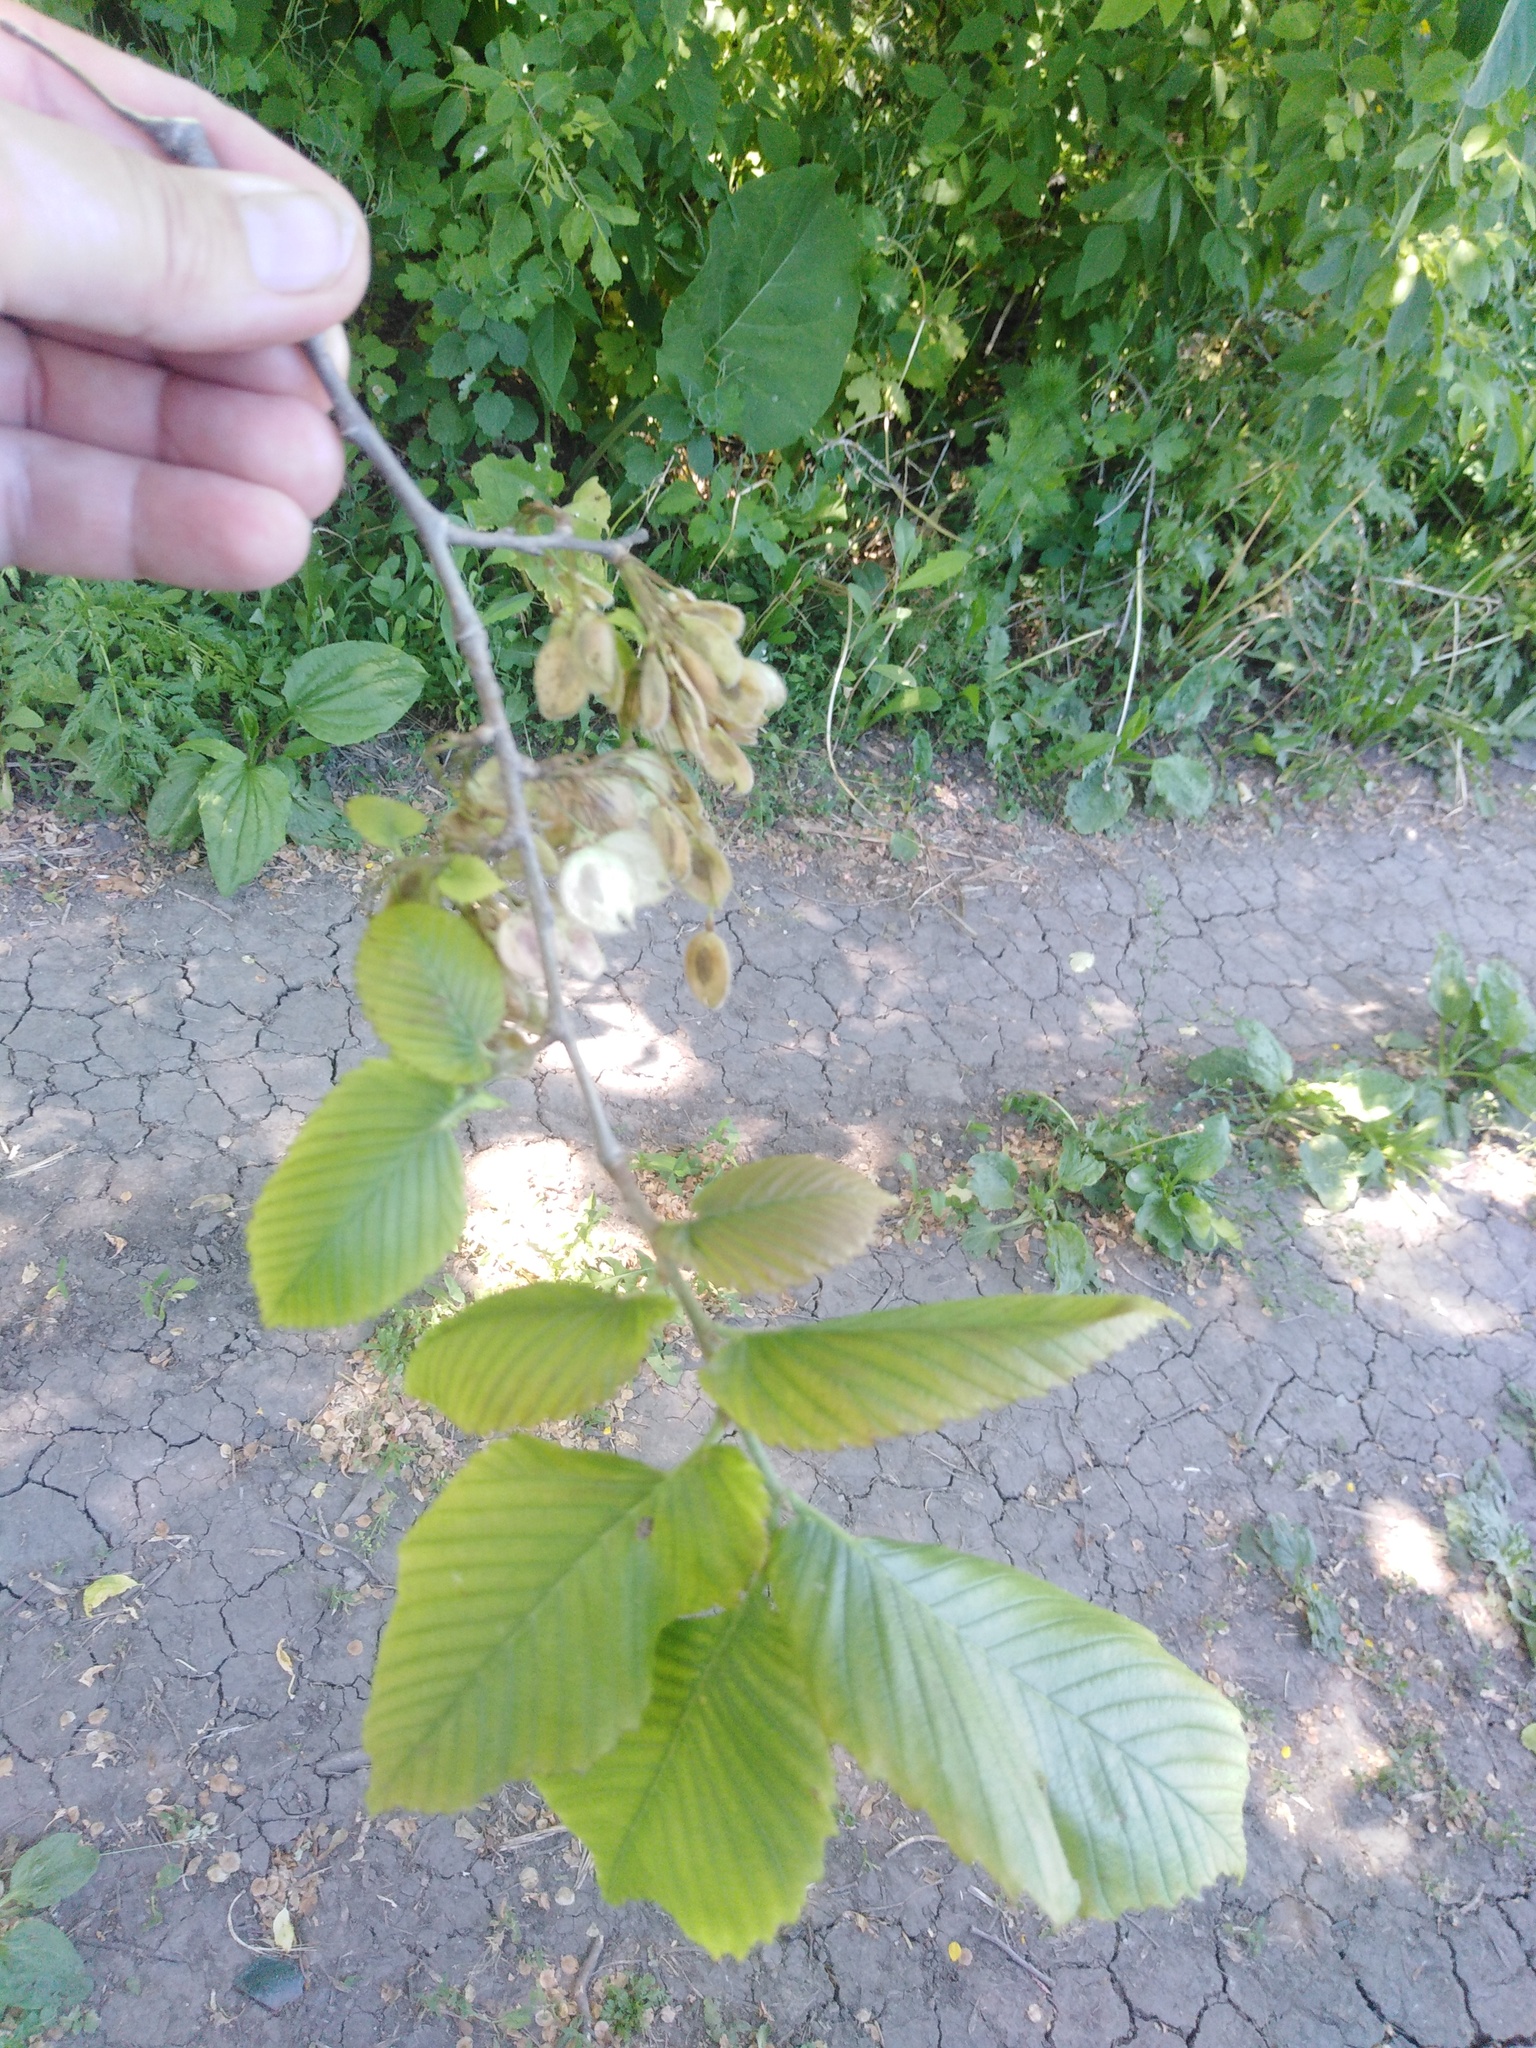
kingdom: Plantae
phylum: Tracheophyta
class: Magnoliopsida
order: Rosales
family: Ulmaceae
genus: Ulmus
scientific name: Ulmus laevis
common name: European white-elm
